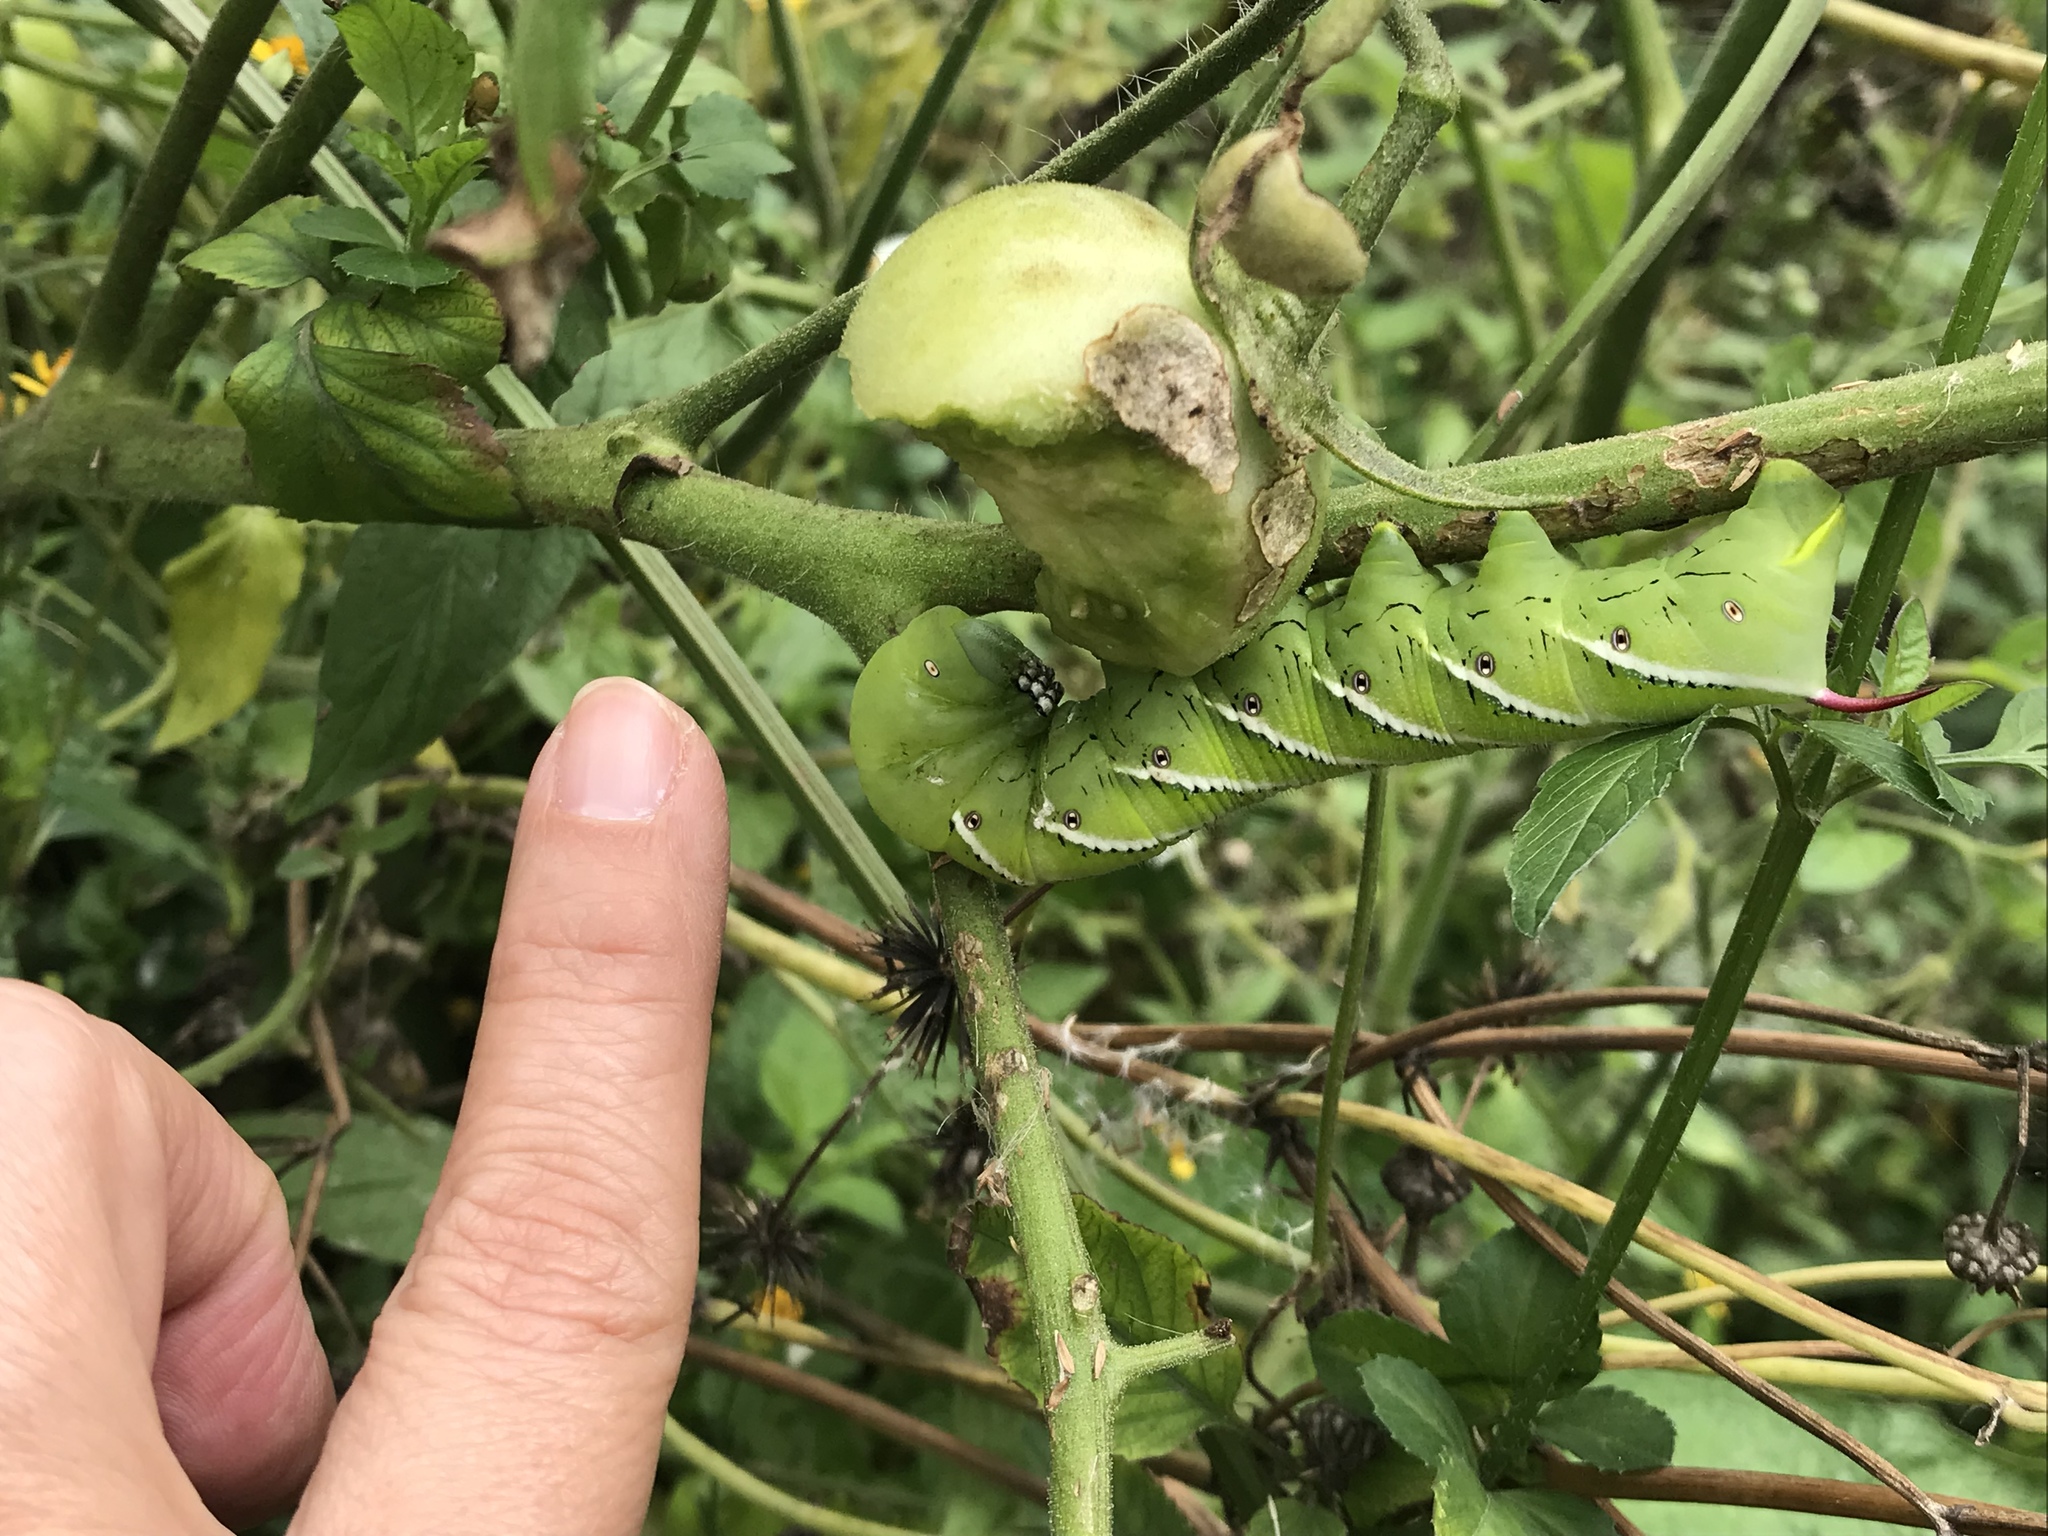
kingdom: Animalia
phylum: Arthropoda
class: Insecta
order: Lepidoptera
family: Sphingidae
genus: Manduca
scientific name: Manduca sexta
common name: Carolina sphinx
